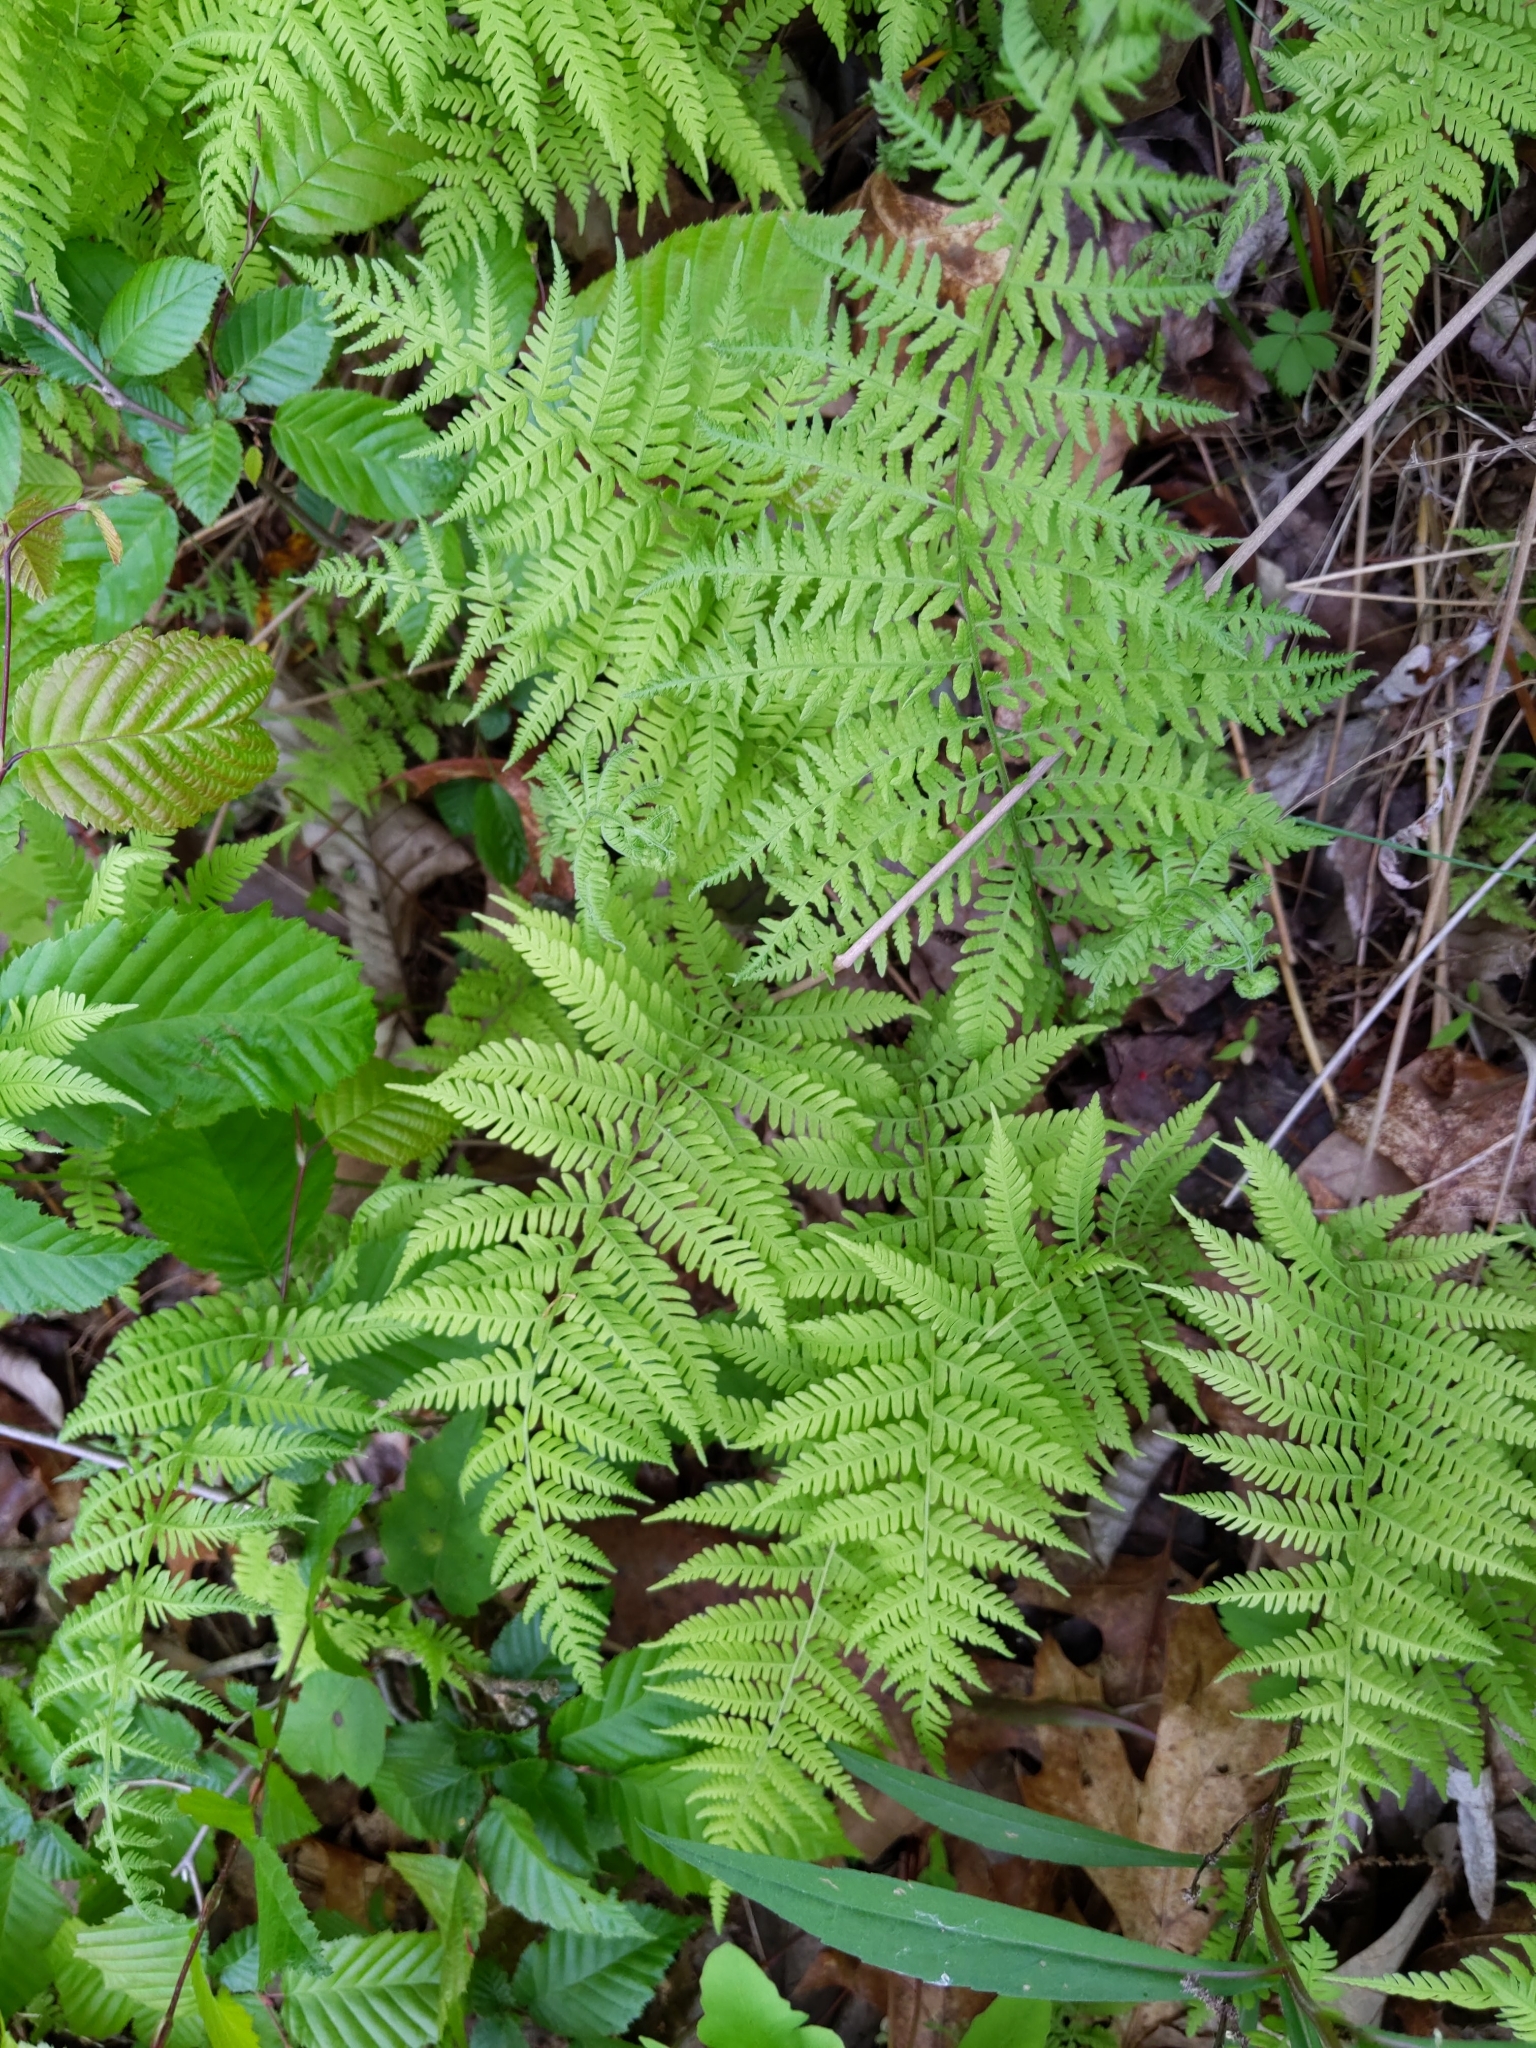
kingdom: Plantae
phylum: Tracheophyta
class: Polypodiopsida
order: Polypodiales
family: Thelypteridaceae
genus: Amauropelta
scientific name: Amauropelta noveboracensis
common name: New york fern
